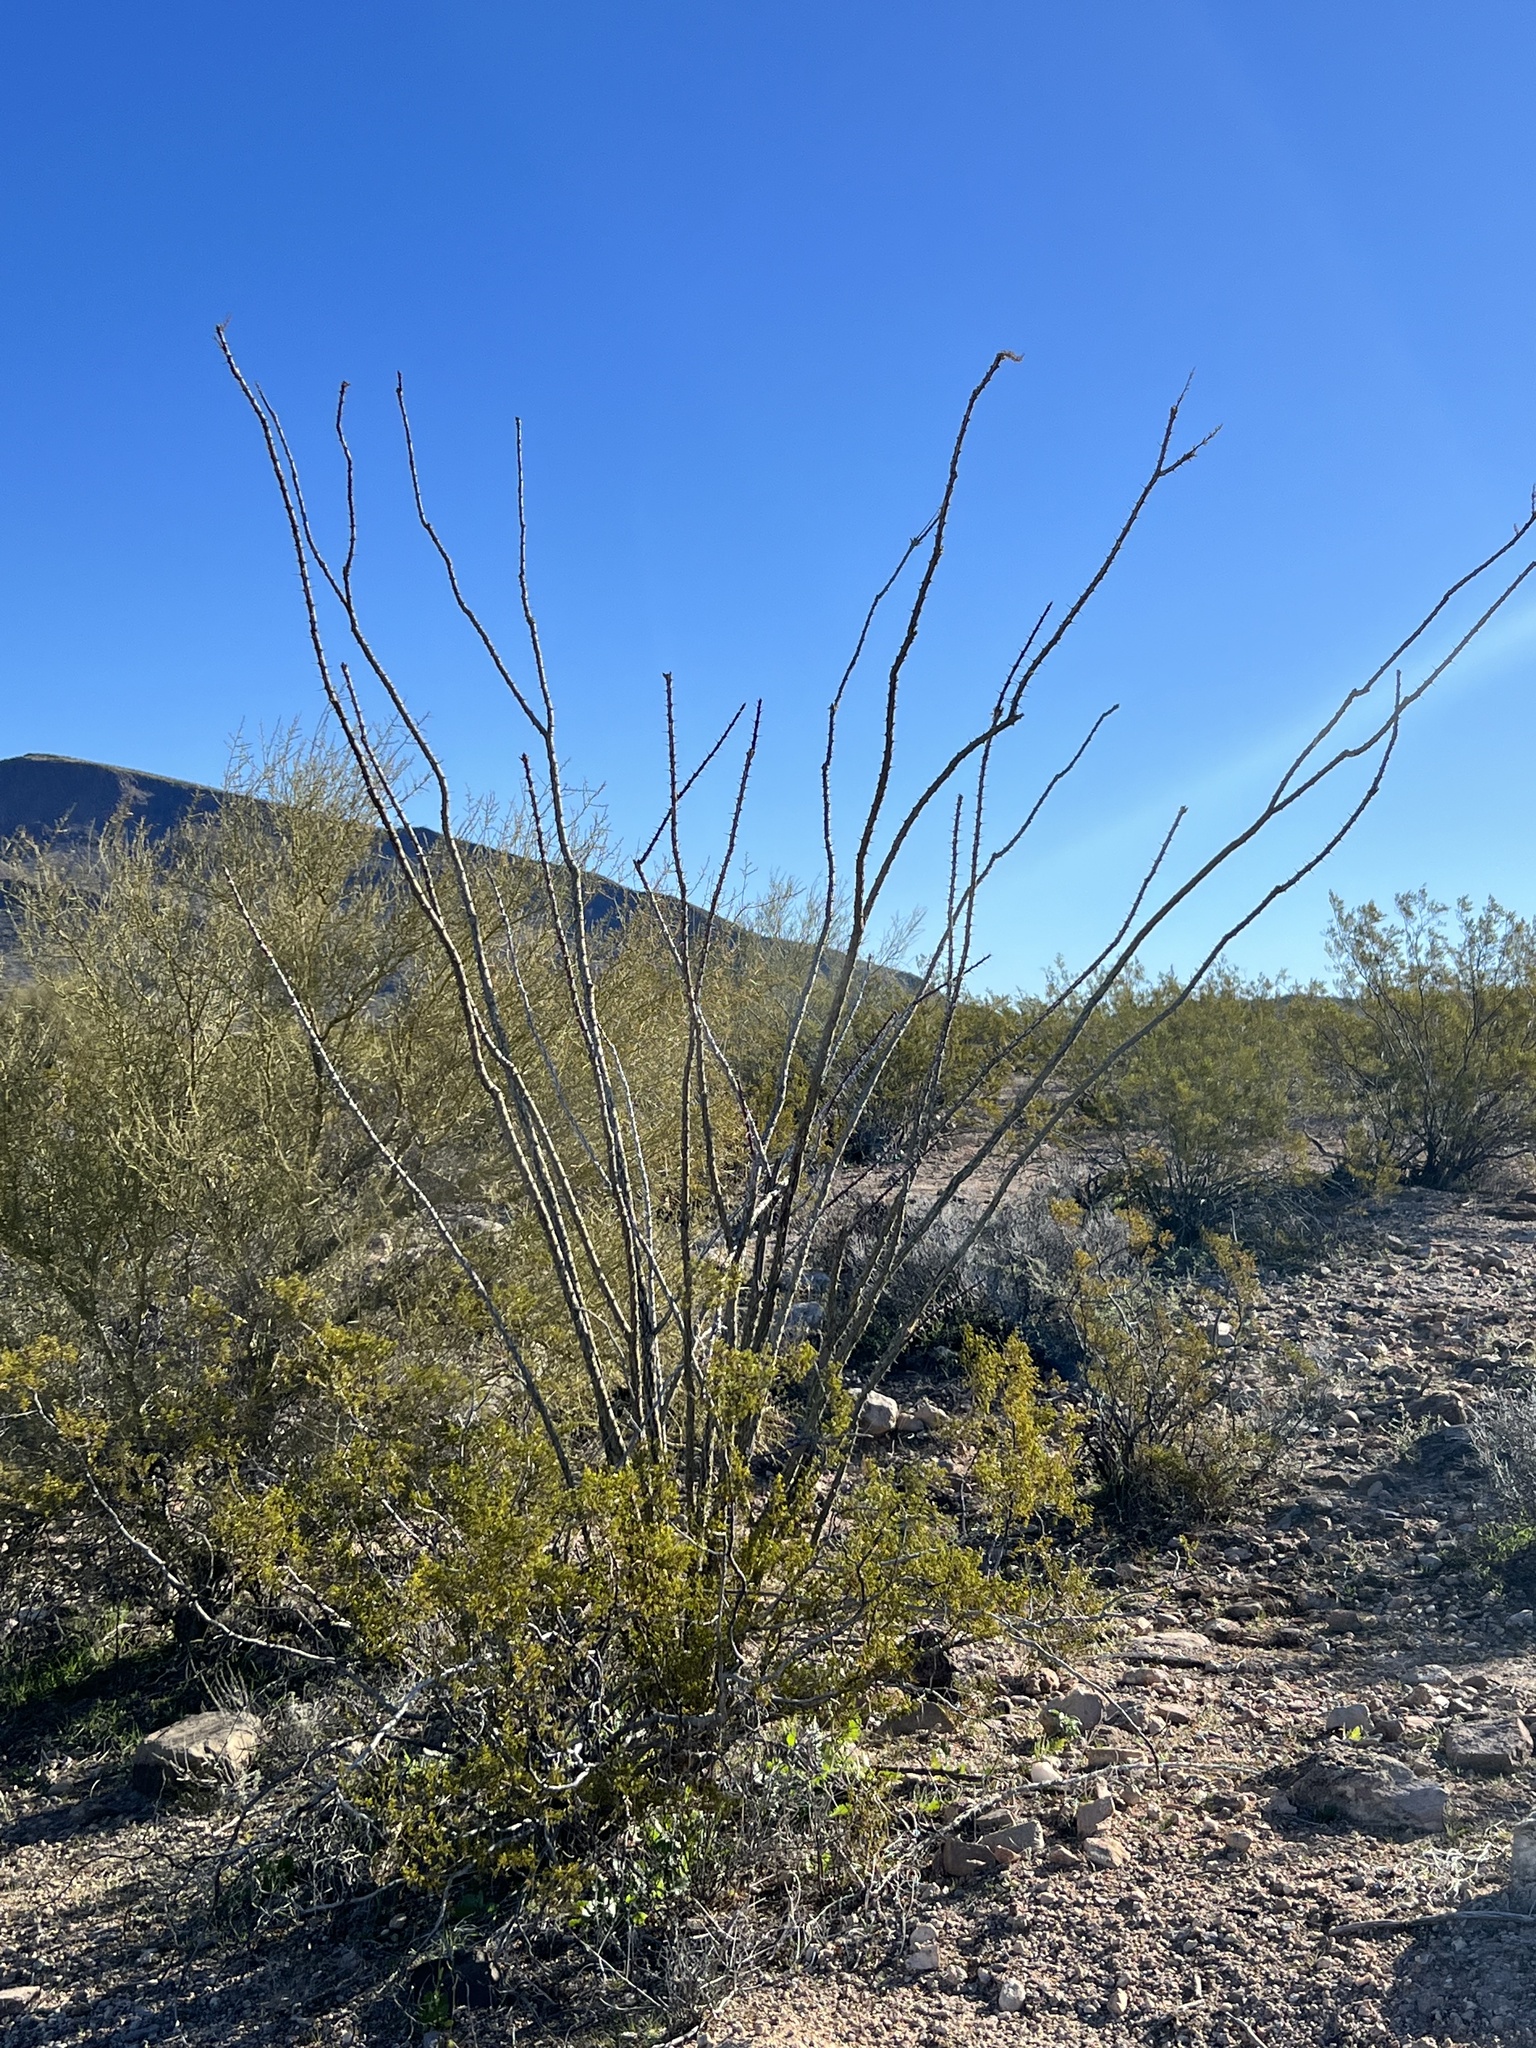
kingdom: Plantae
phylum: Tracheophyta
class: Magnoliopsida
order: Ericales
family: Fouquieriaceae
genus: Fouquieria
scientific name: Fouquieria splendens
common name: Vine-cactus
